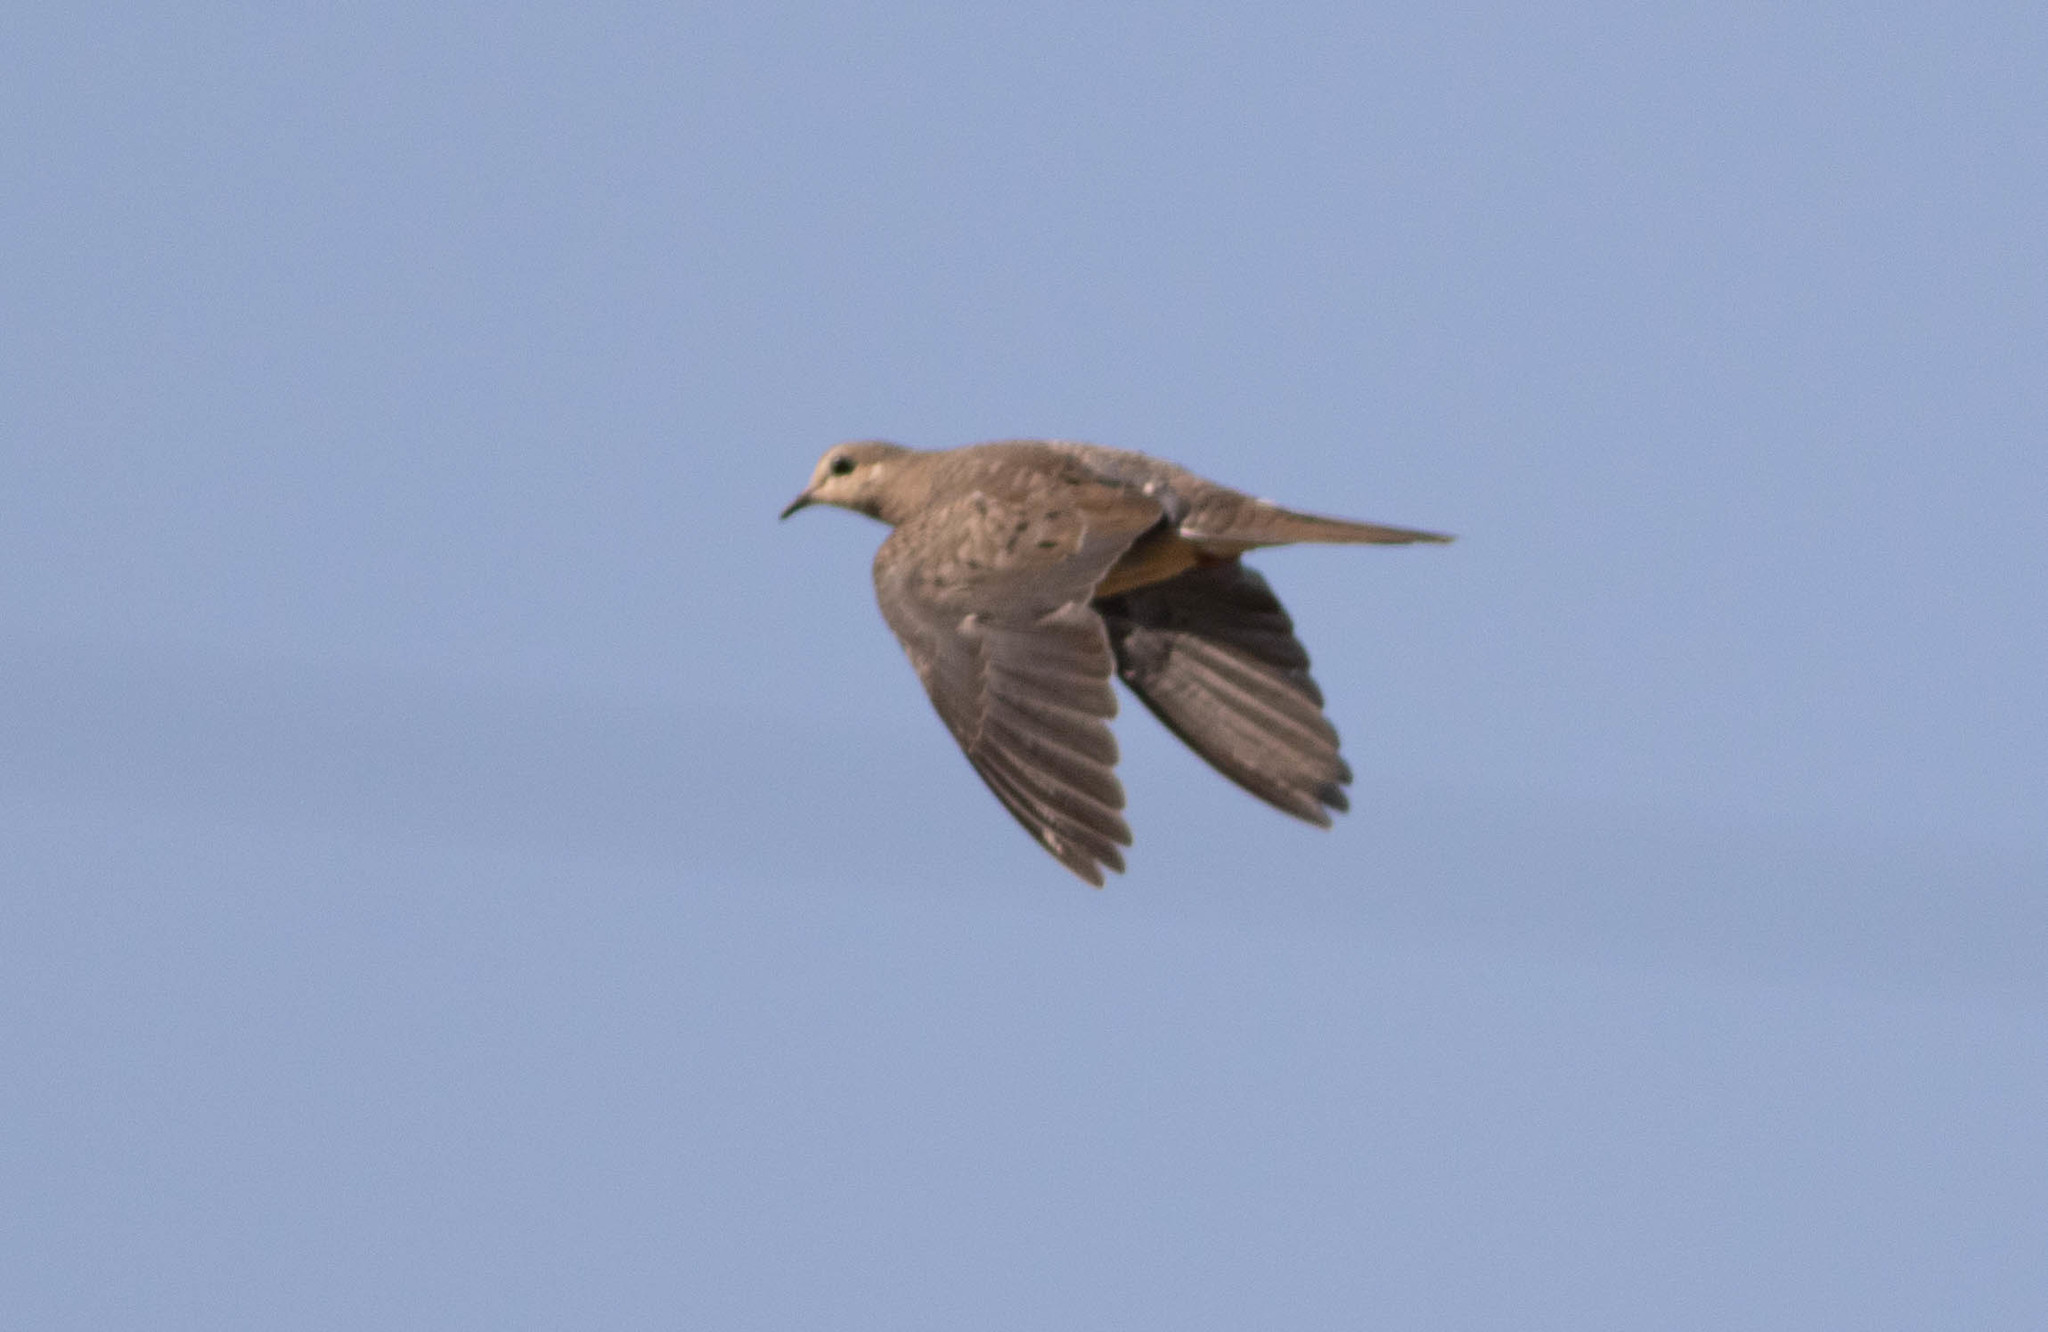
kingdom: Animalia
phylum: Chordata
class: Aves
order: Columbiformes
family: Columbidae
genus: Zenaida
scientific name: Zenaida macroura
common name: Mourning dove
